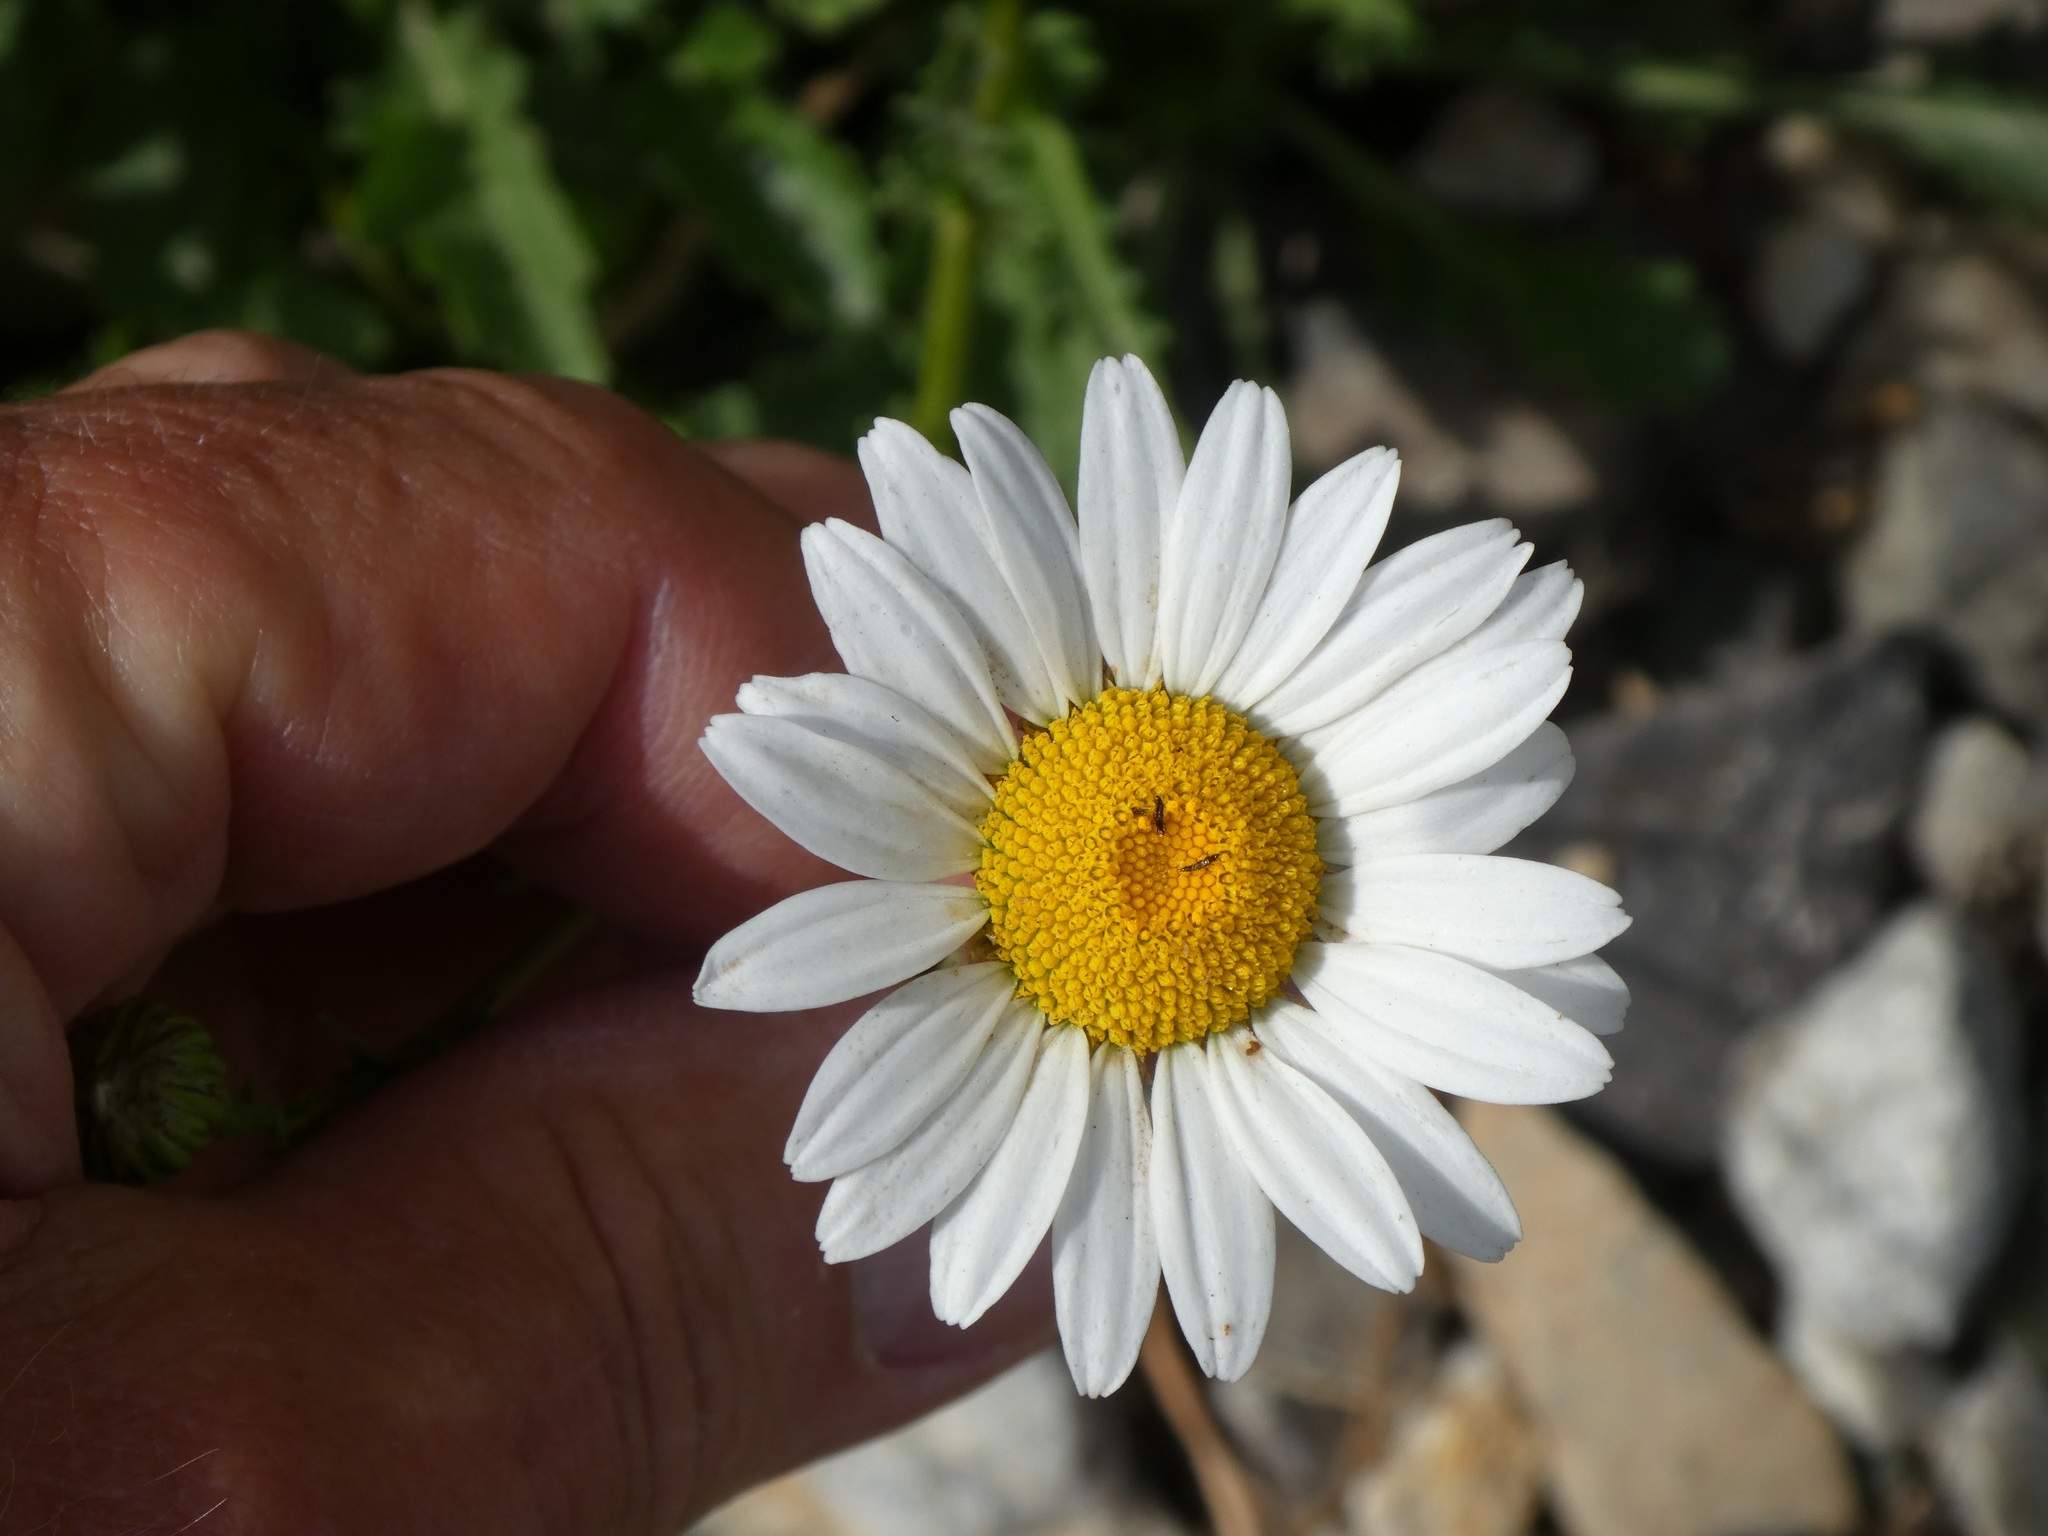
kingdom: Plantae
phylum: Tracheophyta
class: Magnoliopsida
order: Asterales
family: Asteraceae
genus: Leucanthemum
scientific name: Leucanthemum vulgare
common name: Oxeye daisy
